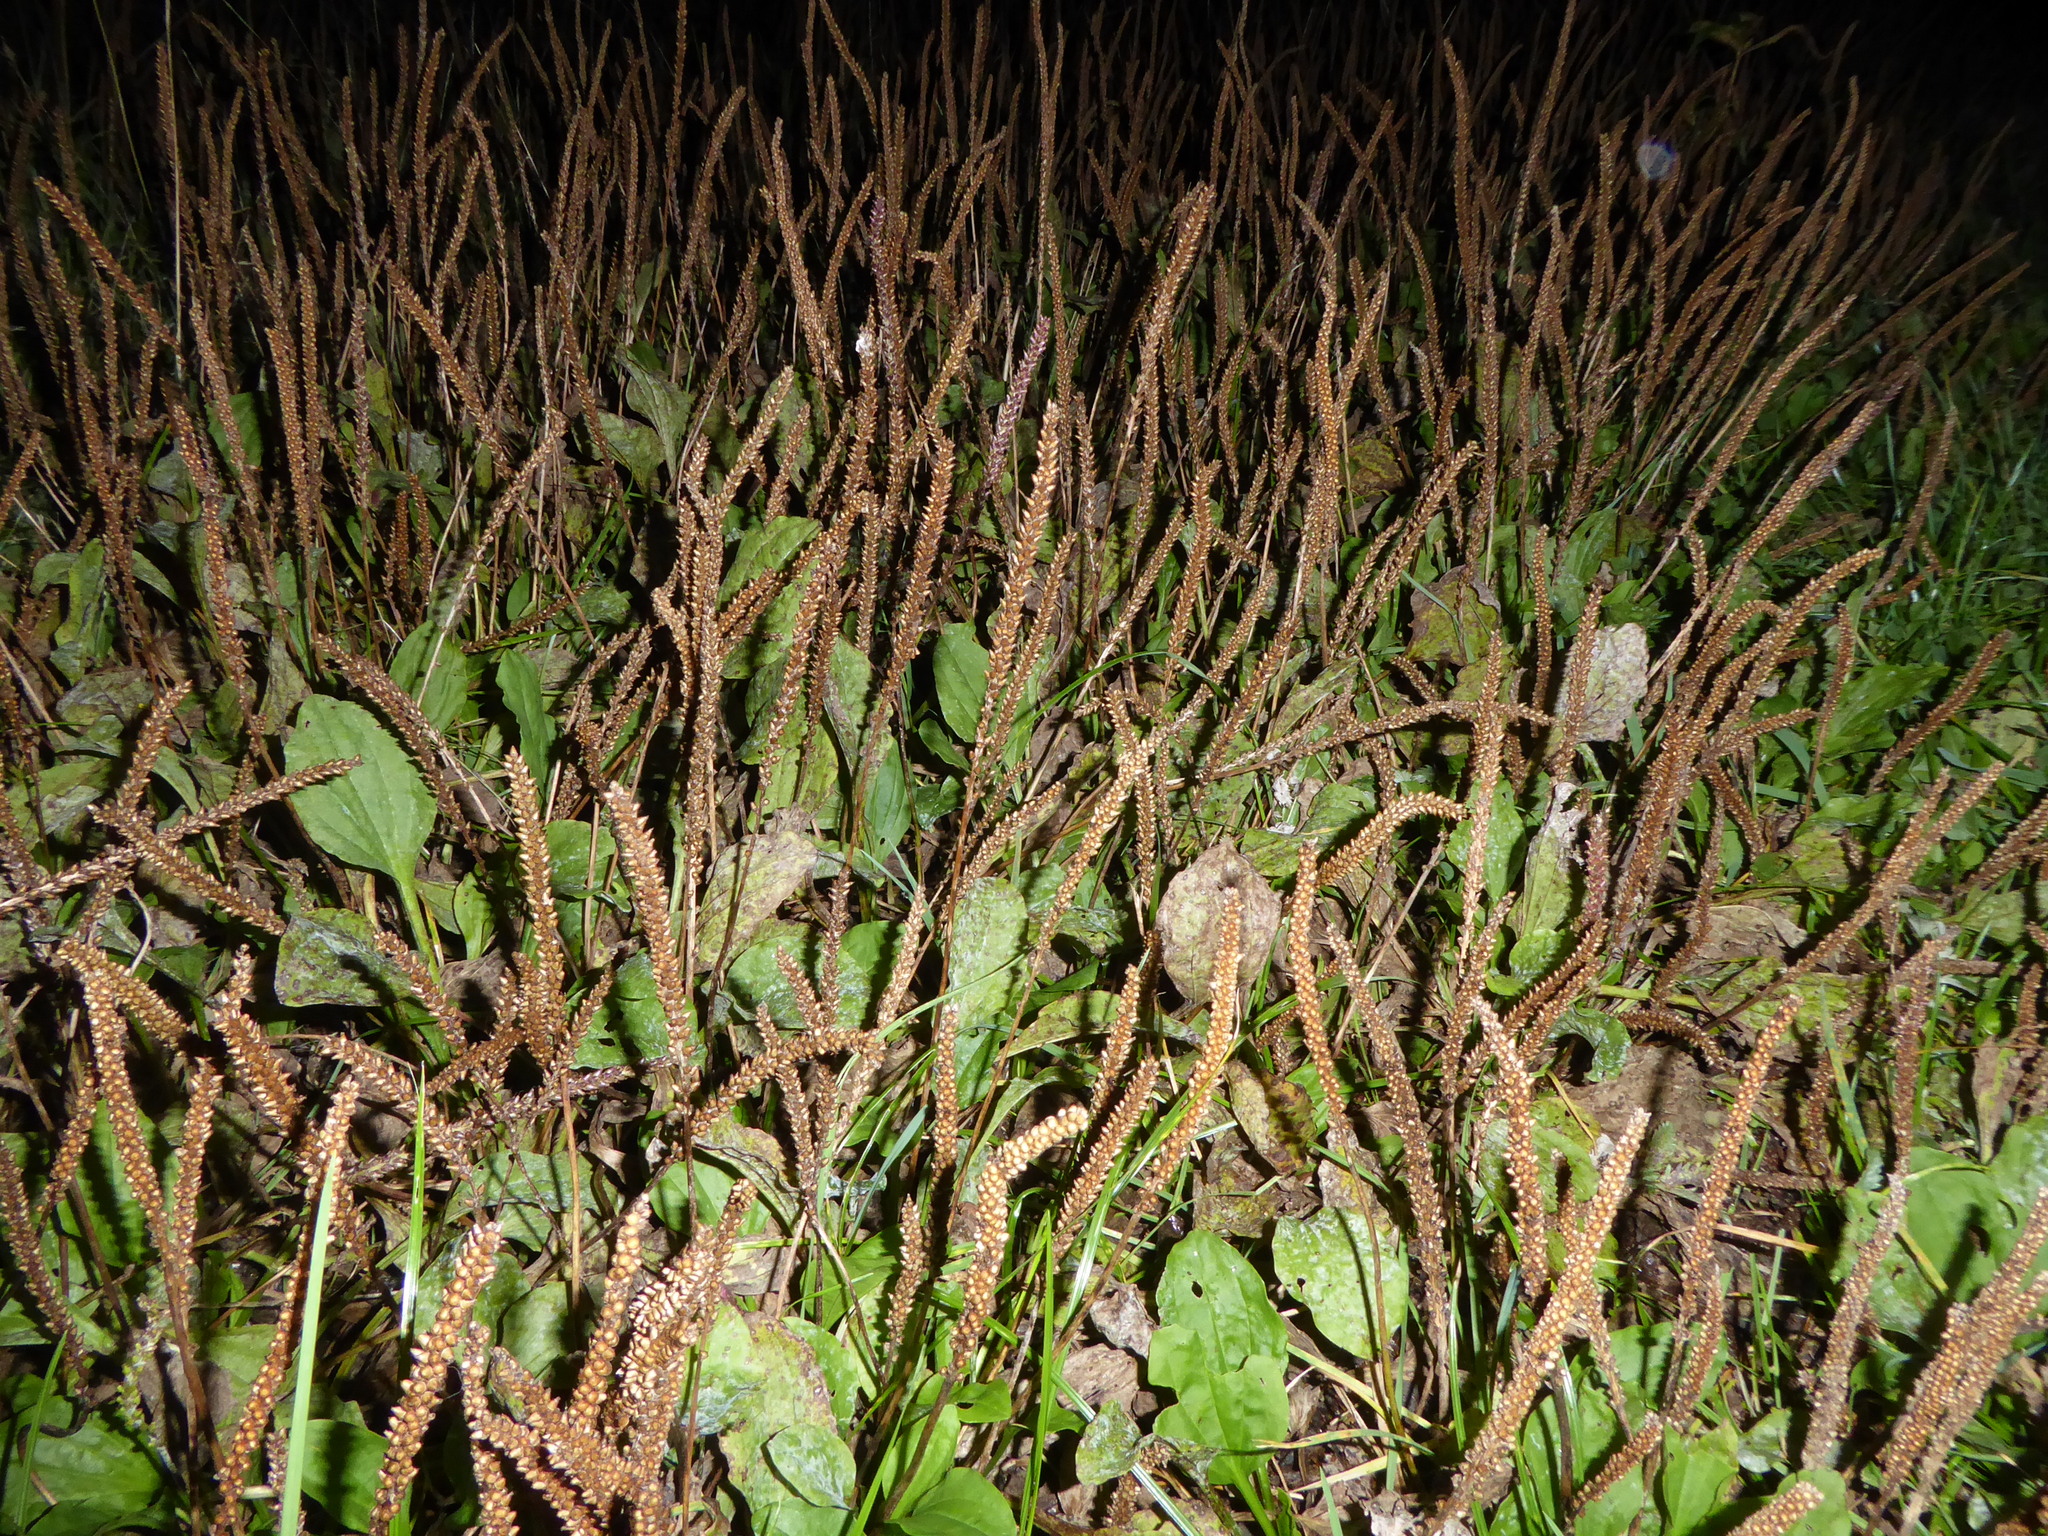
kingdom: Plantae
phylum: Tracheophyta
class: Magnoliopsida
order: Lamiales
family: Plantaginaceae
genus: Plantago
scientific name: Plantago major
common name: Common plantain
